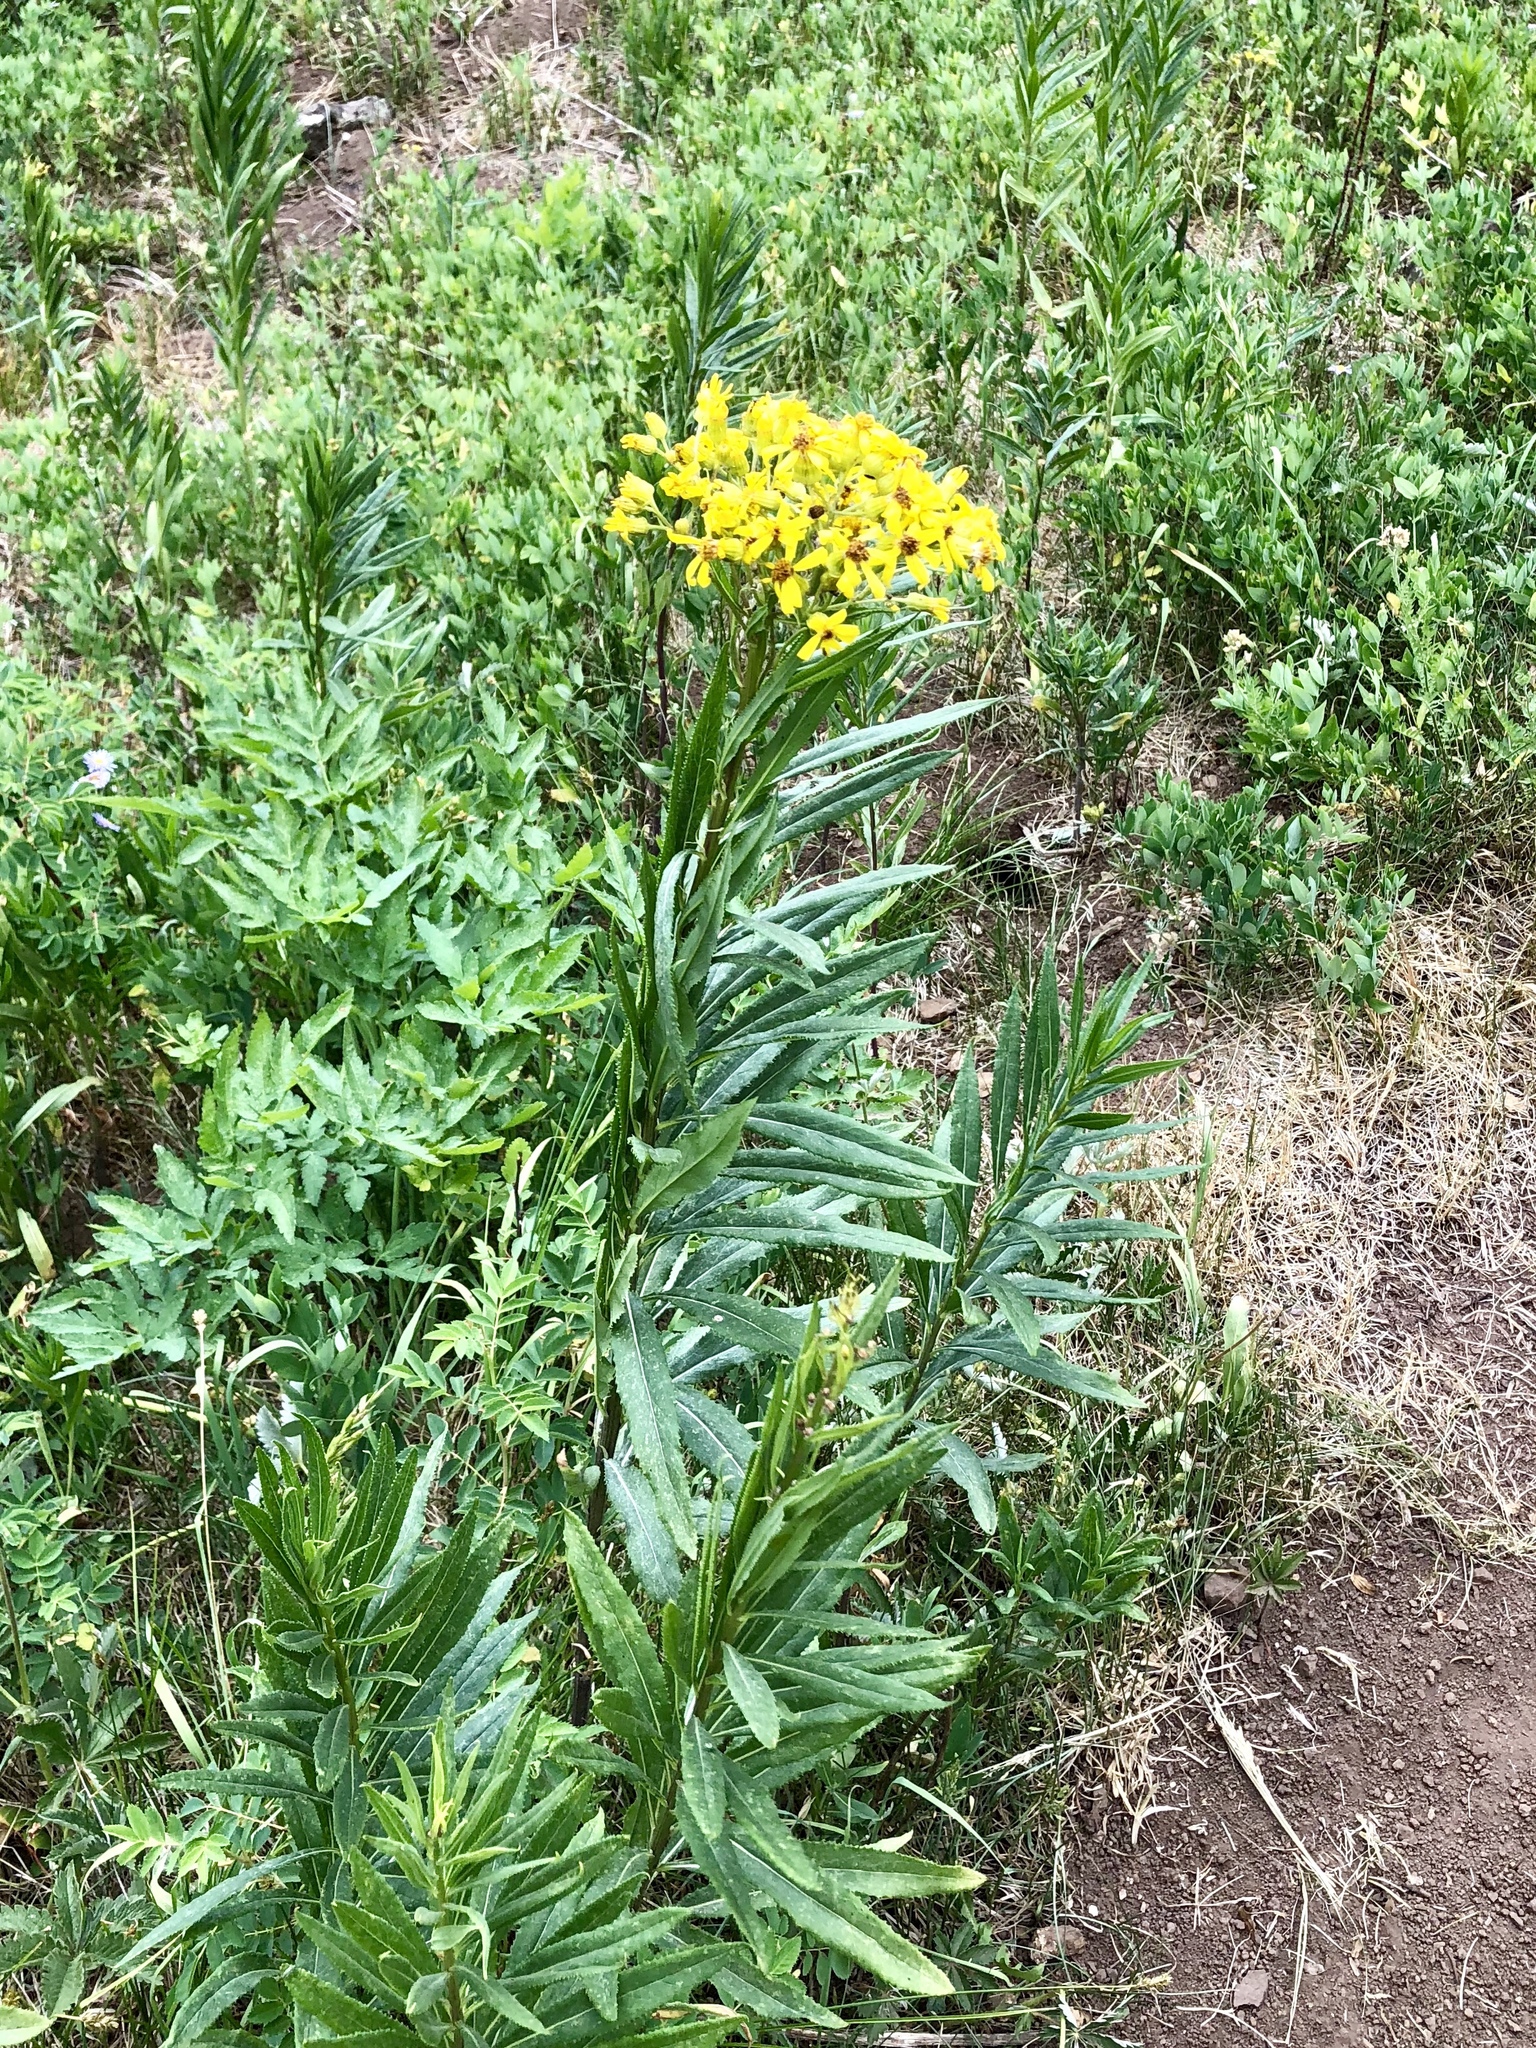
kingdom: Plantae
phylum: Tracheophyta
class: Magnoliopsida
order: Asterales
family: Asteraceae
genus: Senecio
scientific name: Senecio serra
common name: Tall ragwort
